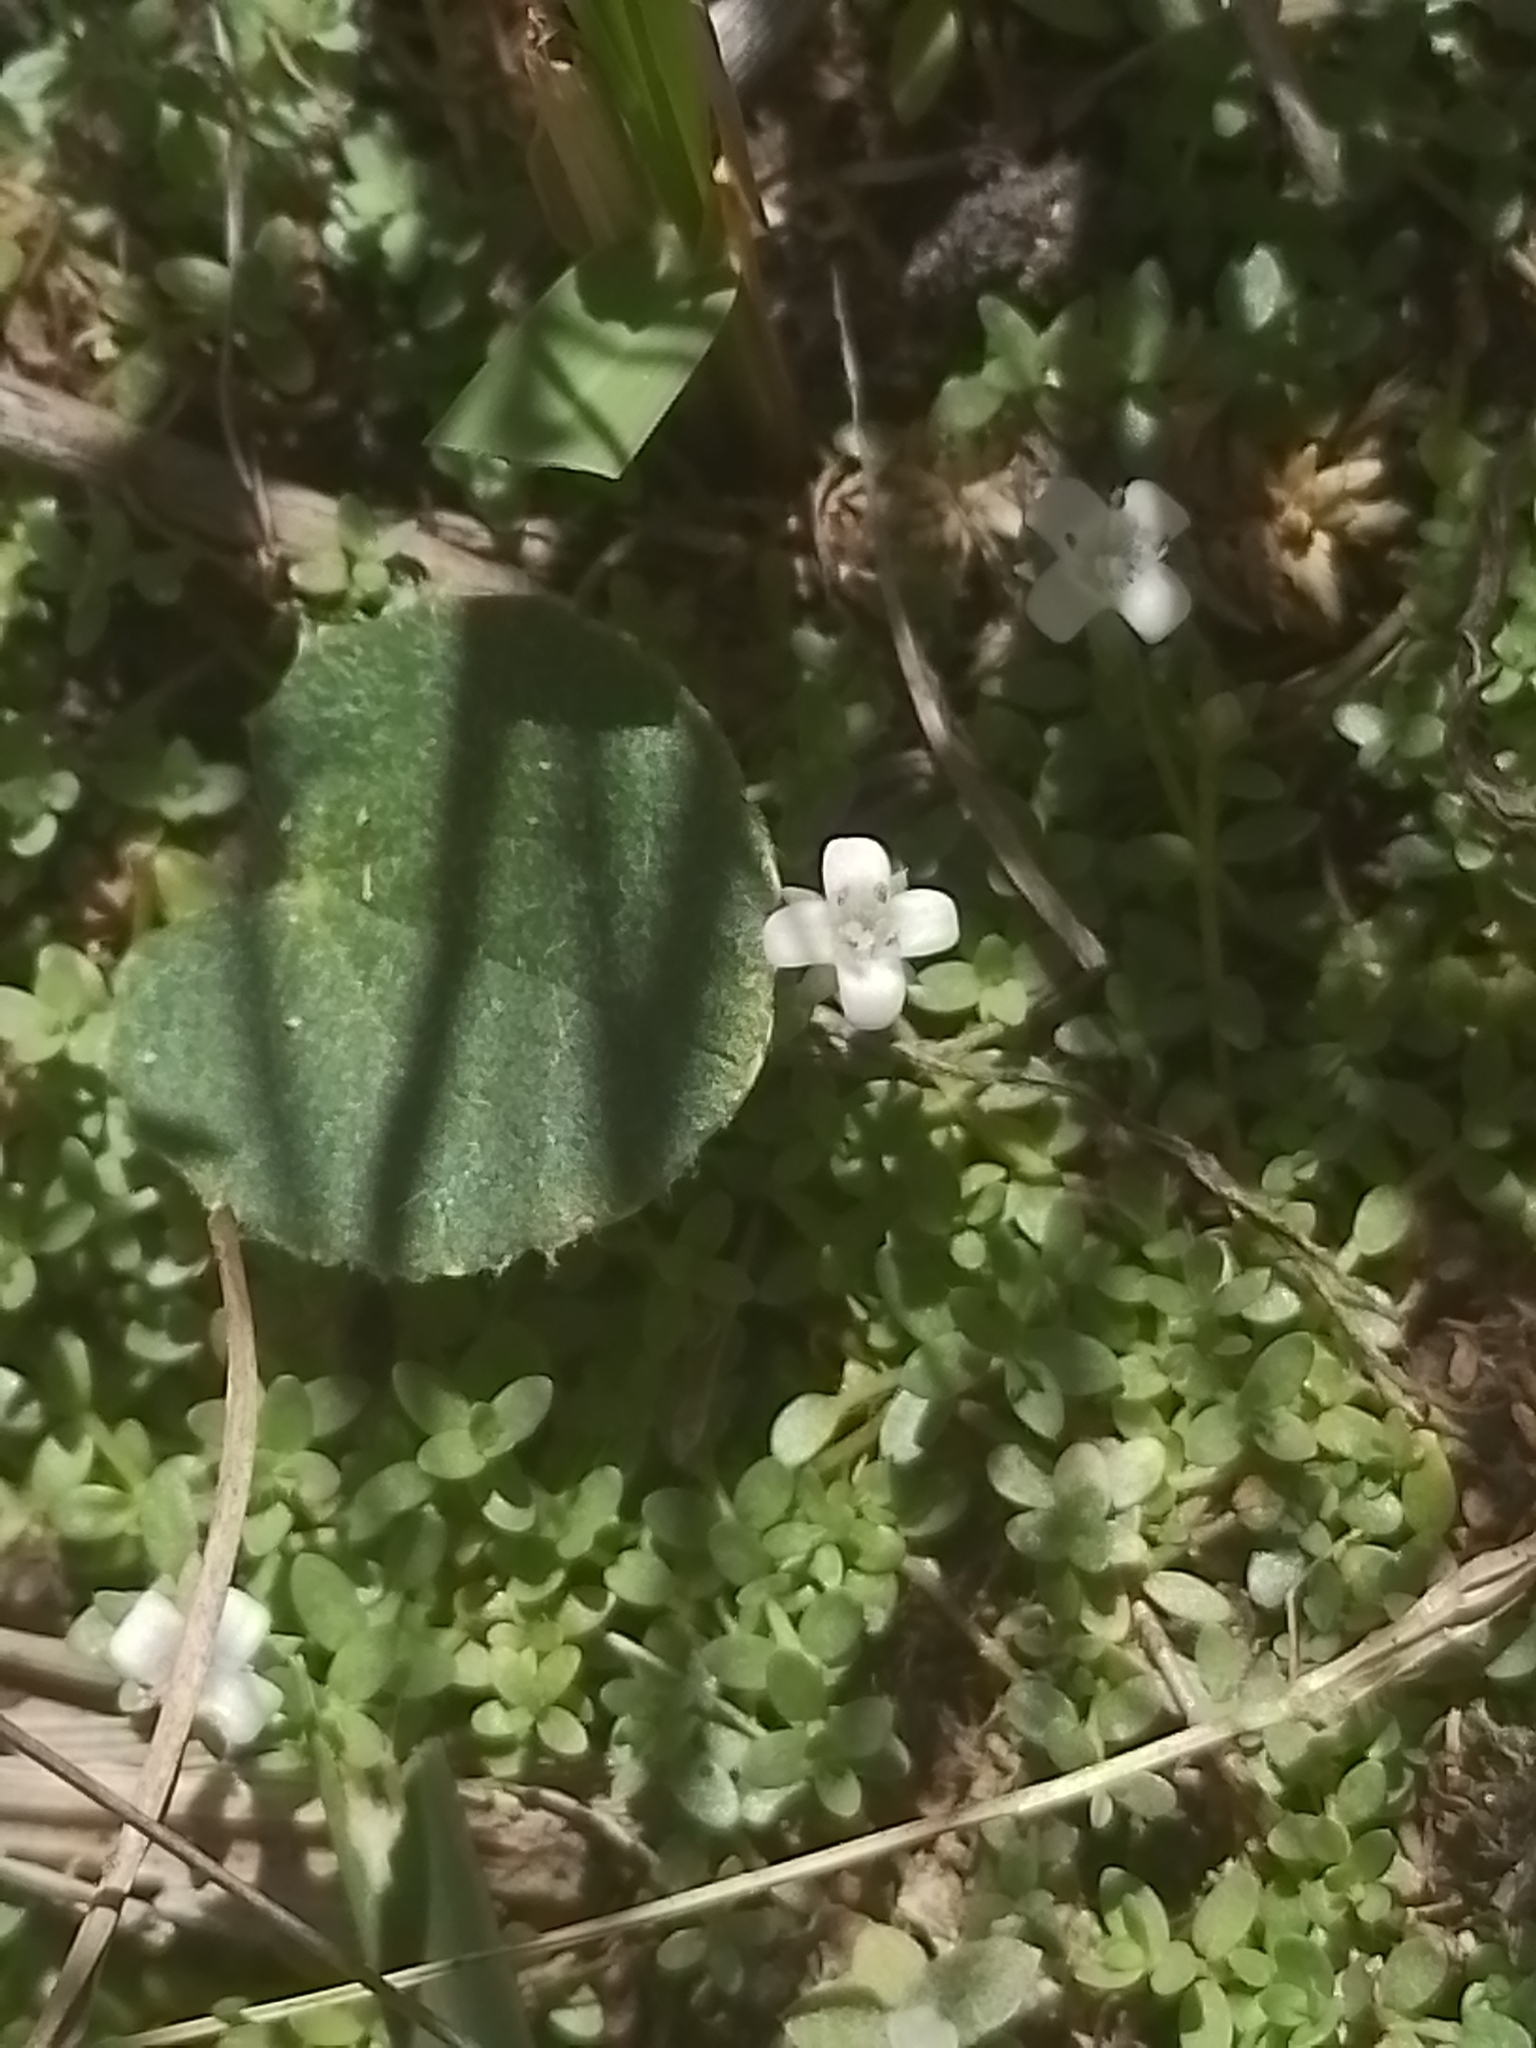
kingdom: Plantae
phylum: Tracheophyta
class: Magnoliopsida
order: Gentianales
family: Rubiaceae
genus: Oldenlandia
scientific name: Oldenlandia salzmannii
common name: Salzmann's mille graines
